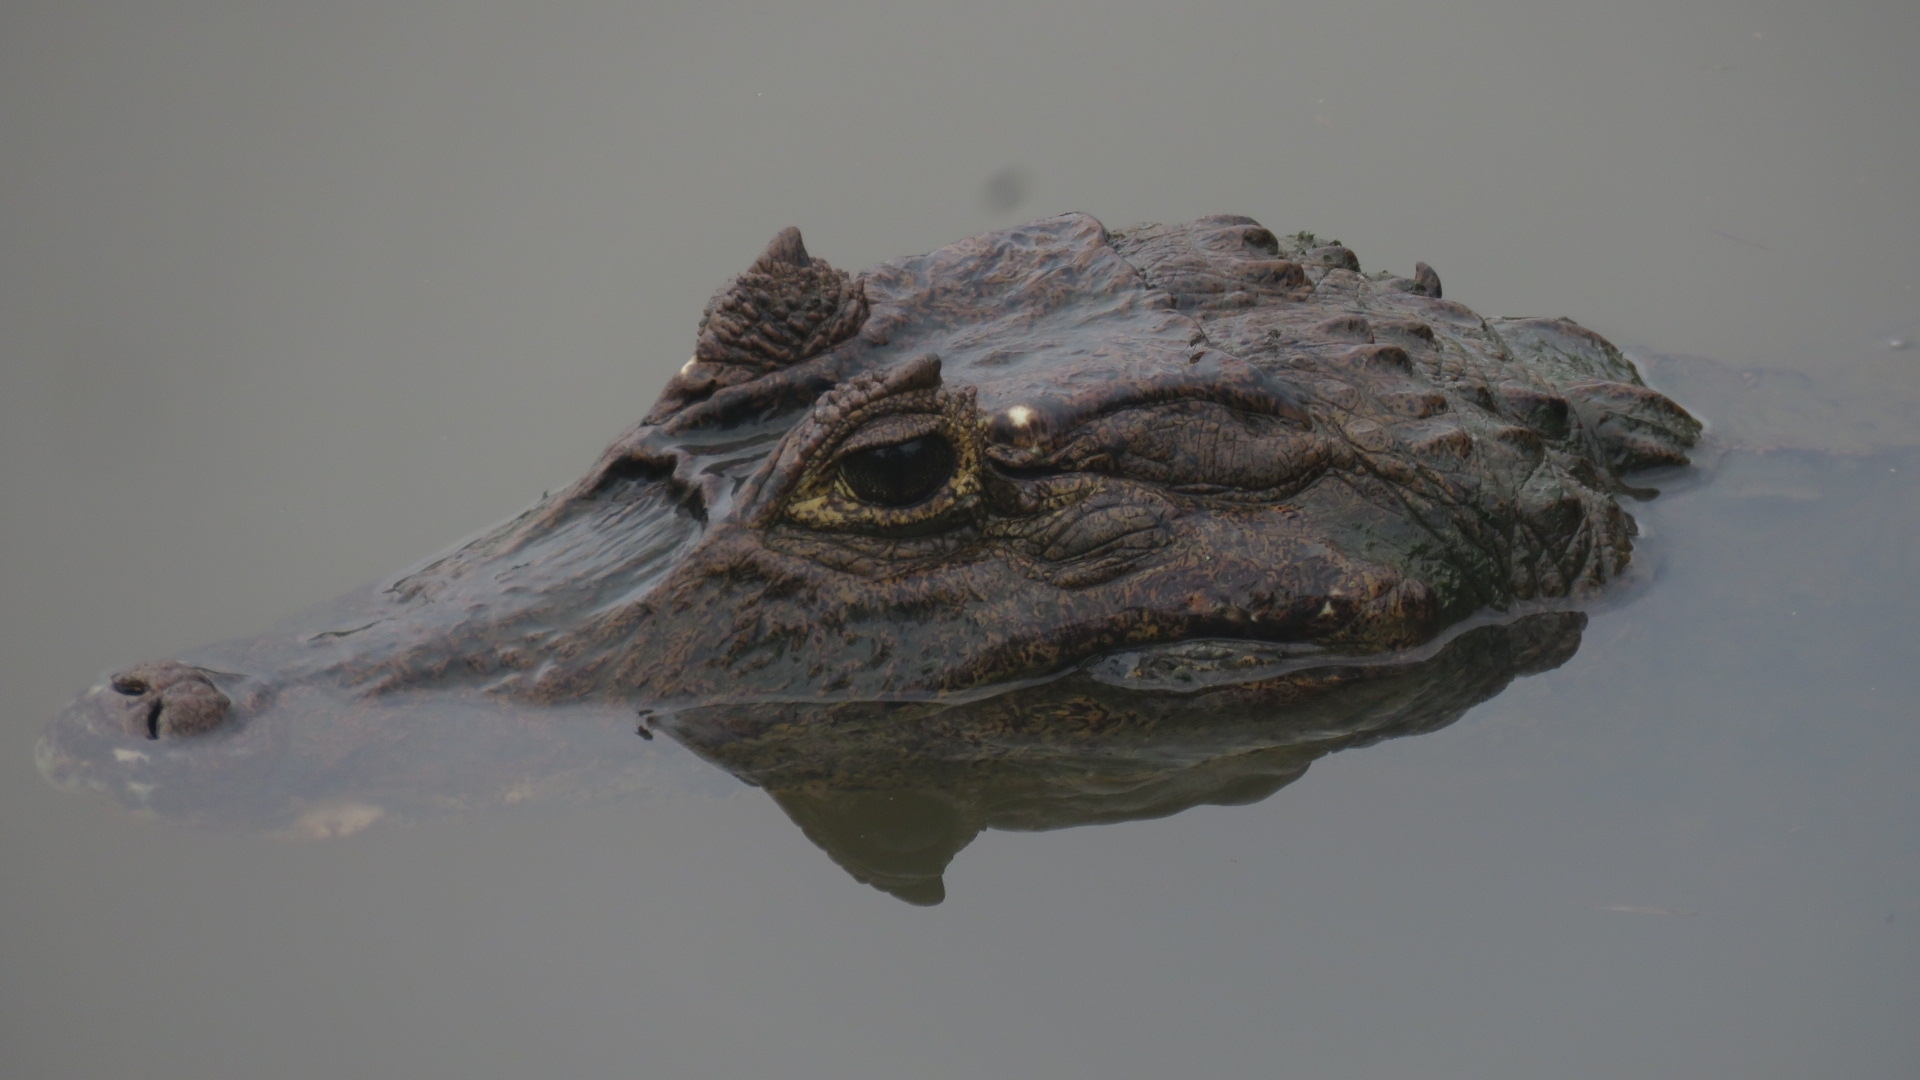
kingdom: Animalia
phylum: Chordata
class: Crocodylia
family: Alligatoridae
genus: Caiman
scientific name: Caiman crocodilus
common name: Common caiman
